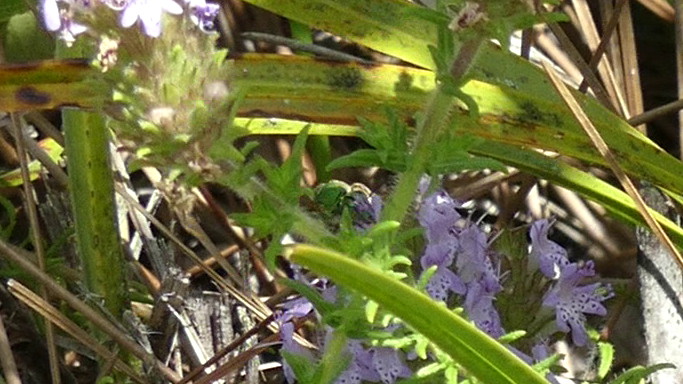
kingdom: Animalia
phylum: Arthropoda
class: Insecta
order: Hymenoptera
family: Halictidae
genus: Agapostemon
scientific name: Agapostemon splendens
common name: Brown-winged striped sweat bee
